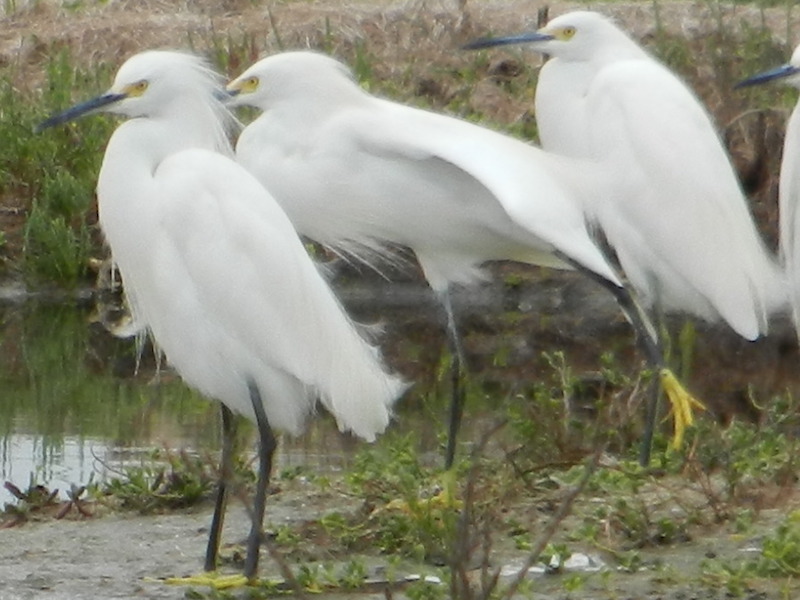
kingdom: Animalia
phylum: Chordata
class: Aves
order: Pelecaniformes
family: Ardeidae
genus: Egretta
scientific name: Egretta thula
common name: Snowy egret
